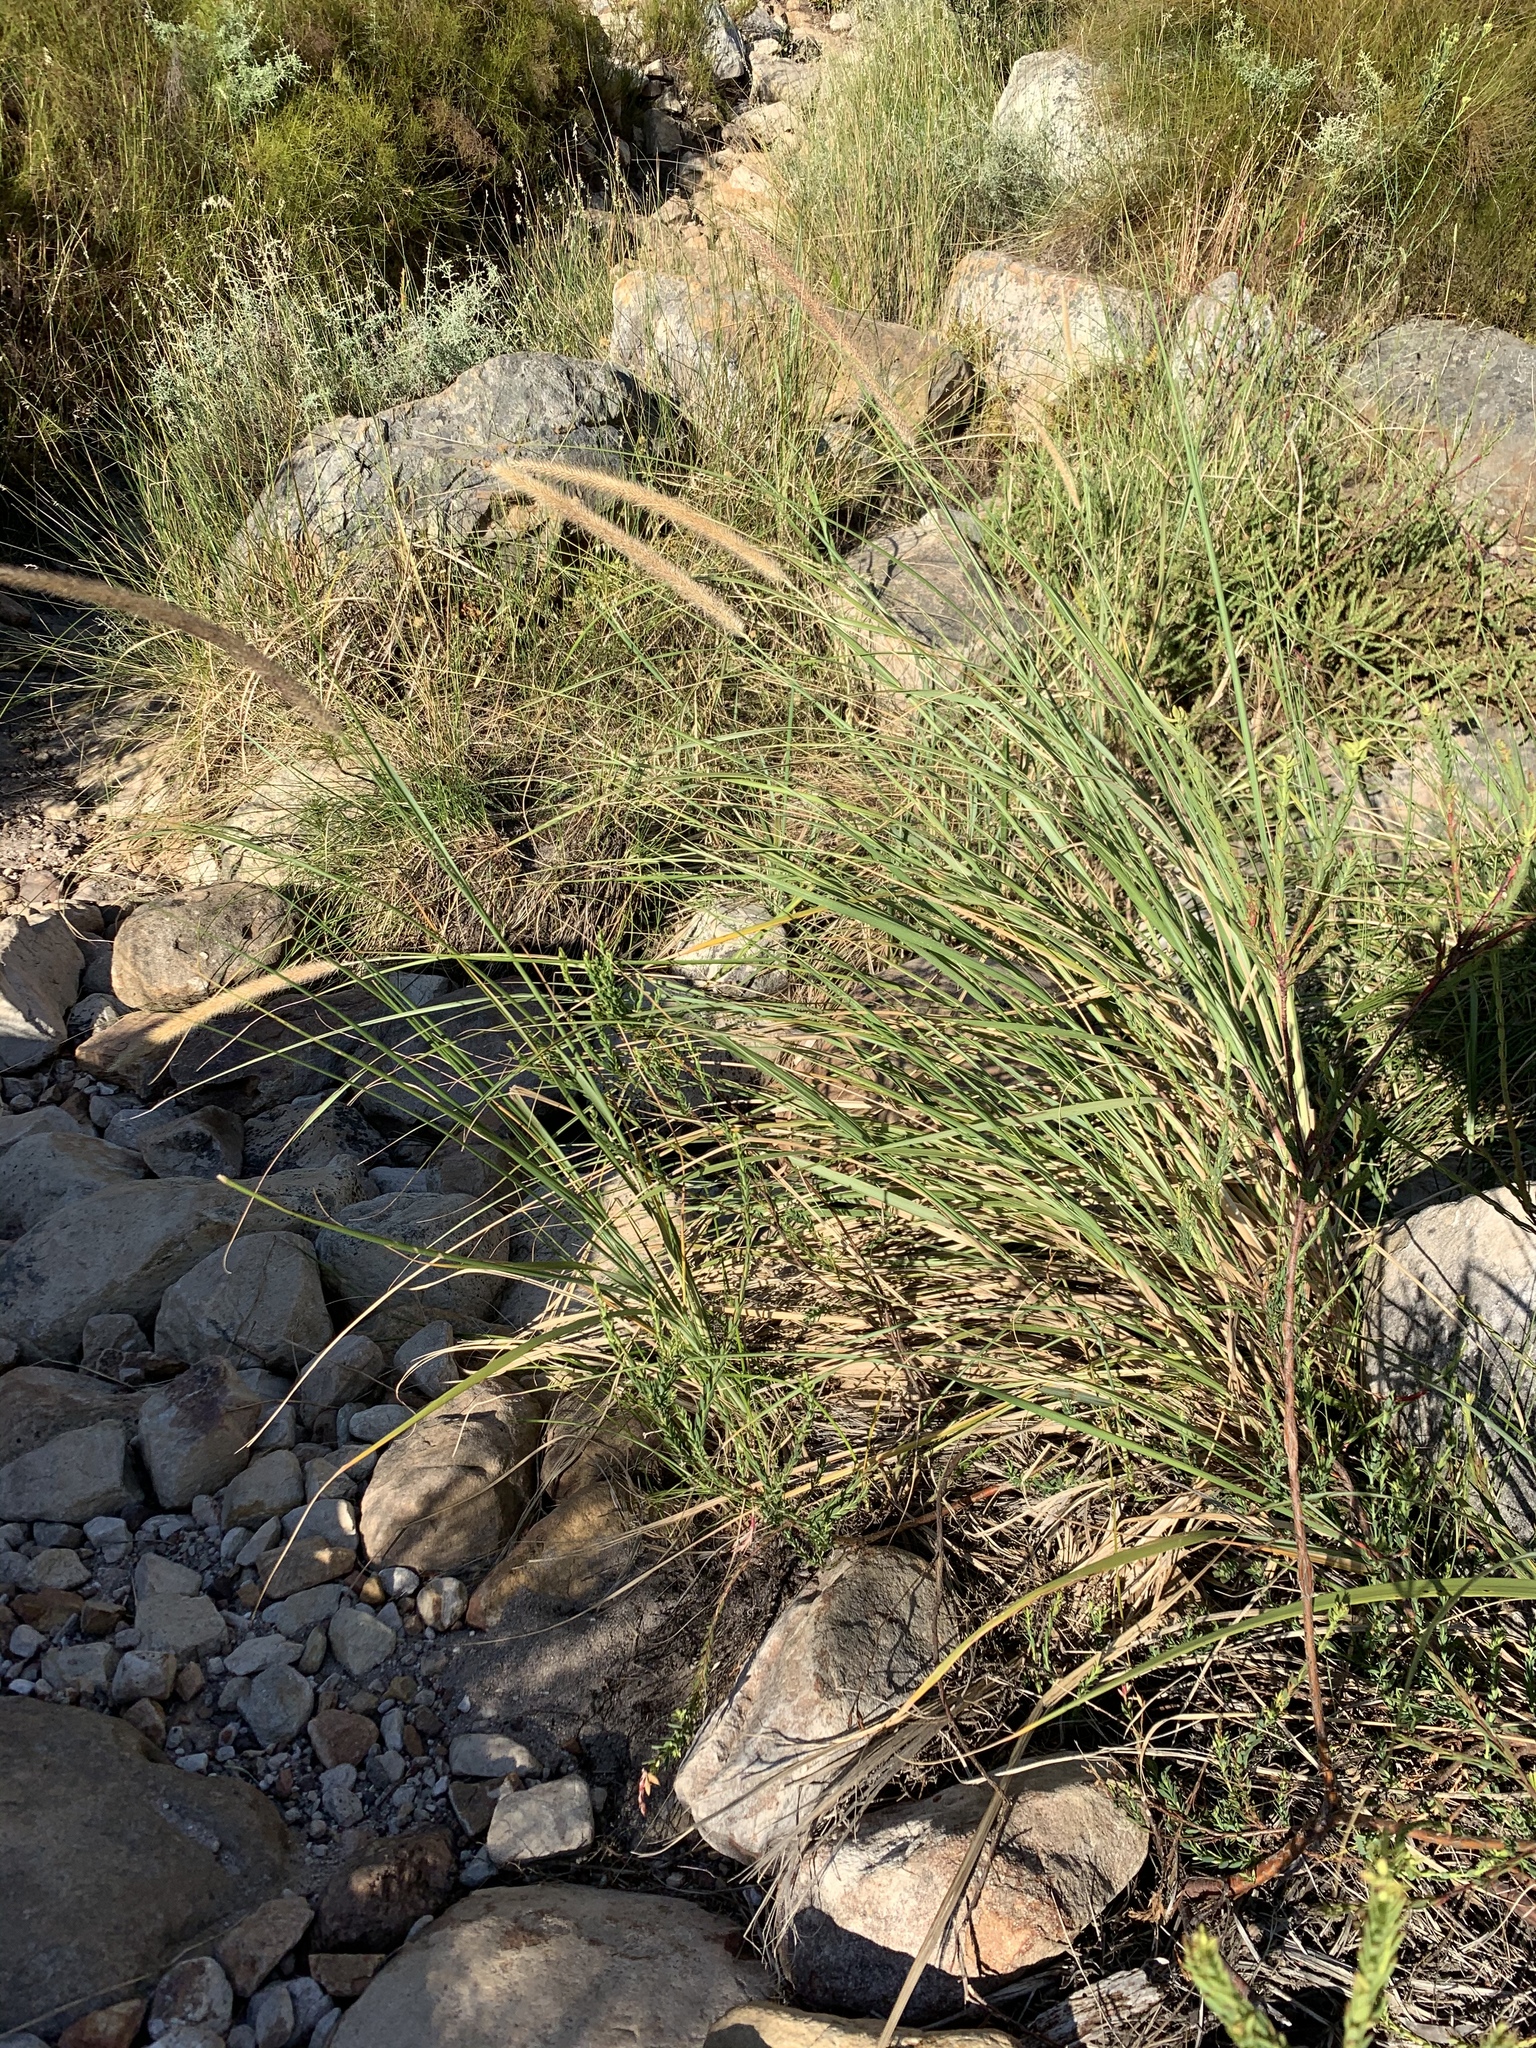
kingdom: Plantae
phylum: Tracheophyta
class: Liliopsida
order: Poales
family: Poaceae
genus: Cenchrus
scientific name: Cenchrus caudatus
